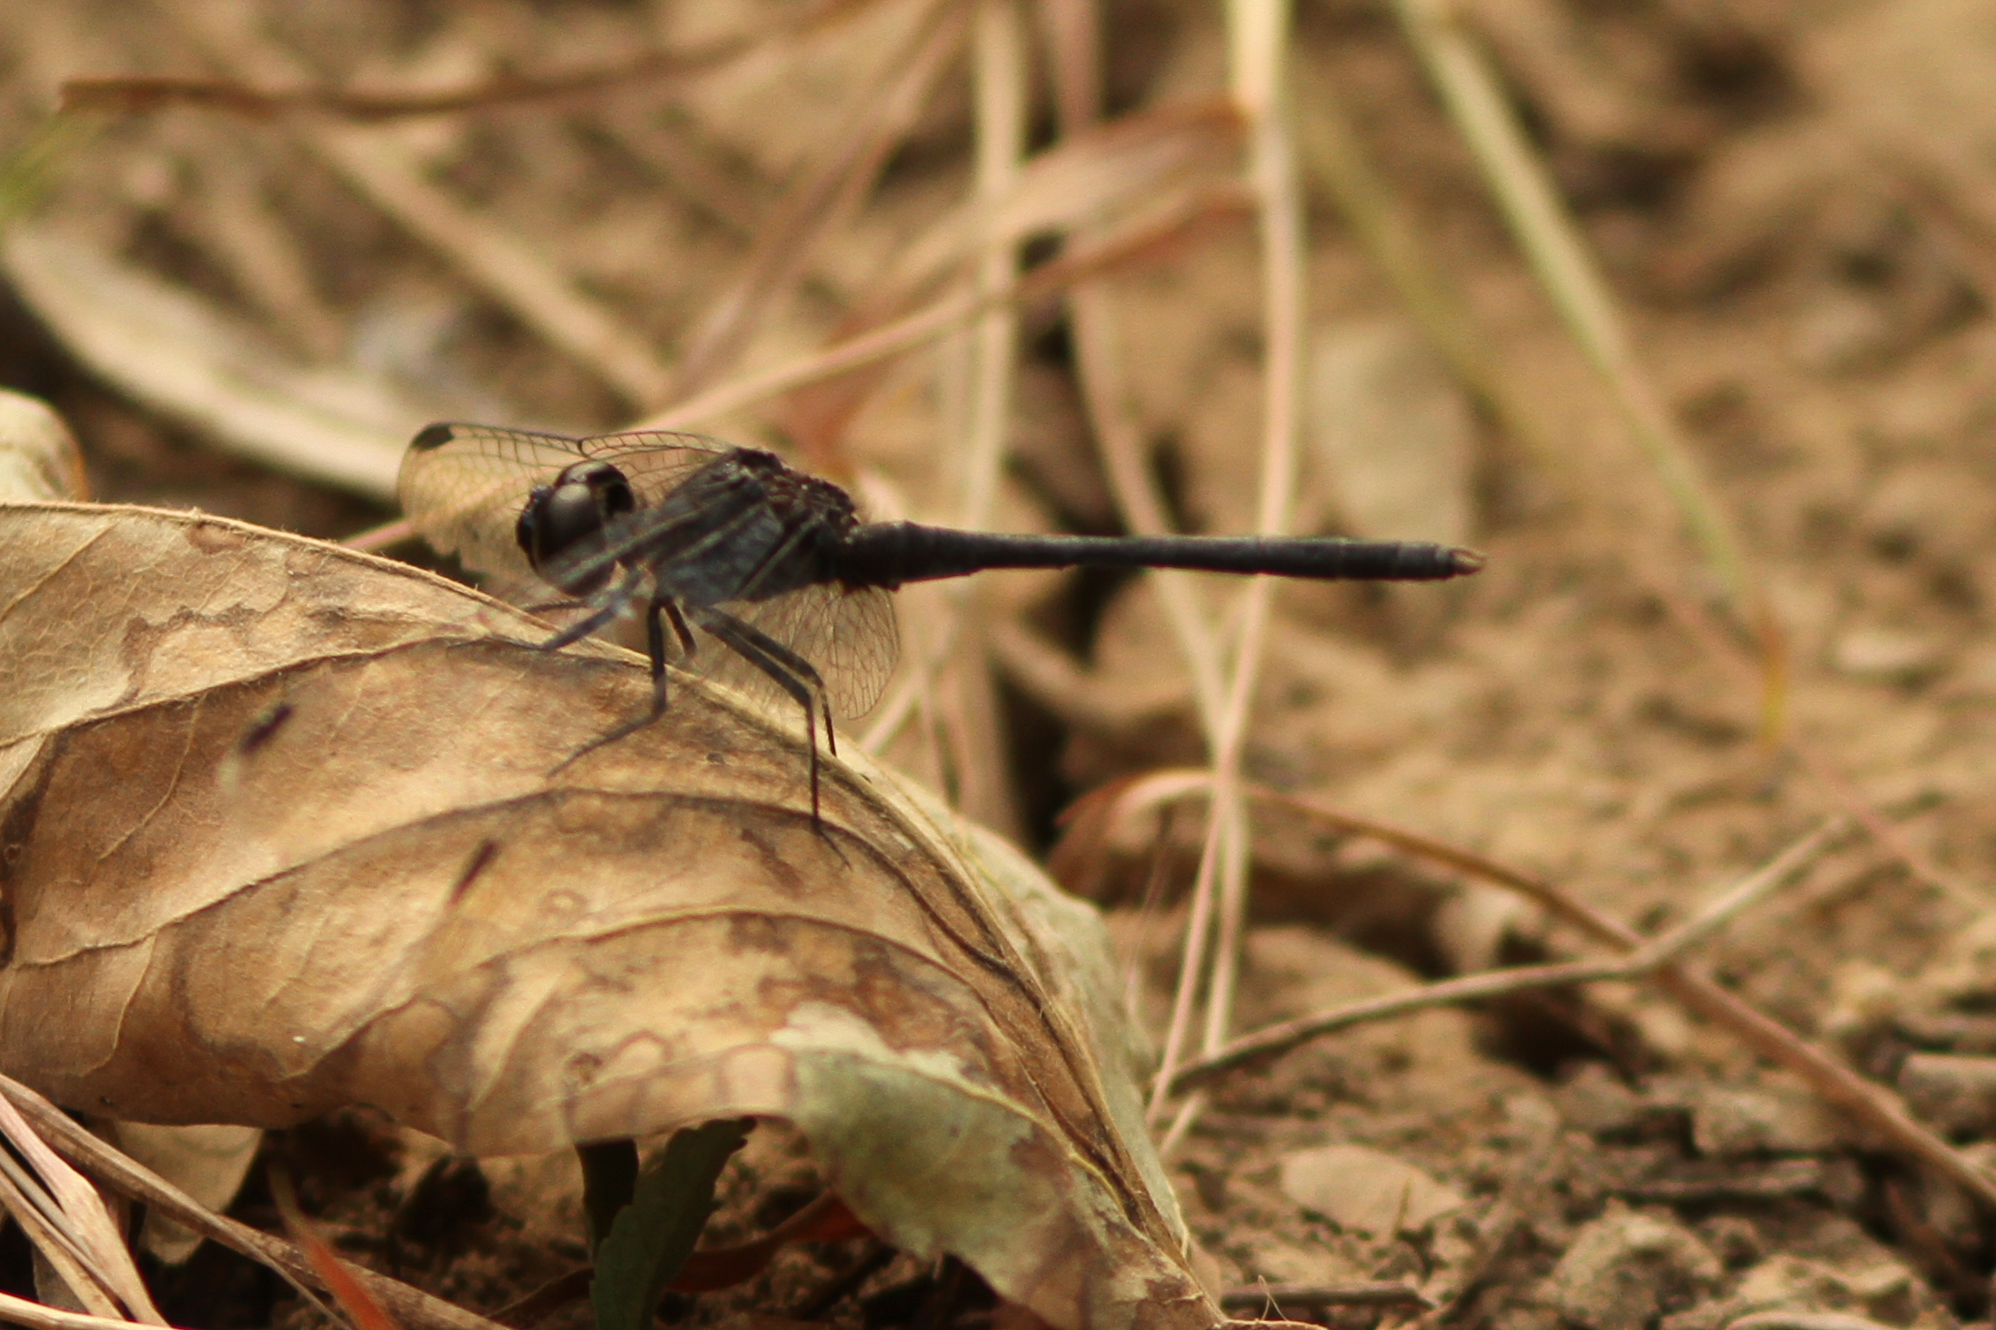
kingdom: Animalia
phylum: Arthropoda
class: Insecta
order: Odonata
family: Libellulidae
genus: Diplacodes
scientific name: Diplacodes lefebvrii
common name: Black percher
